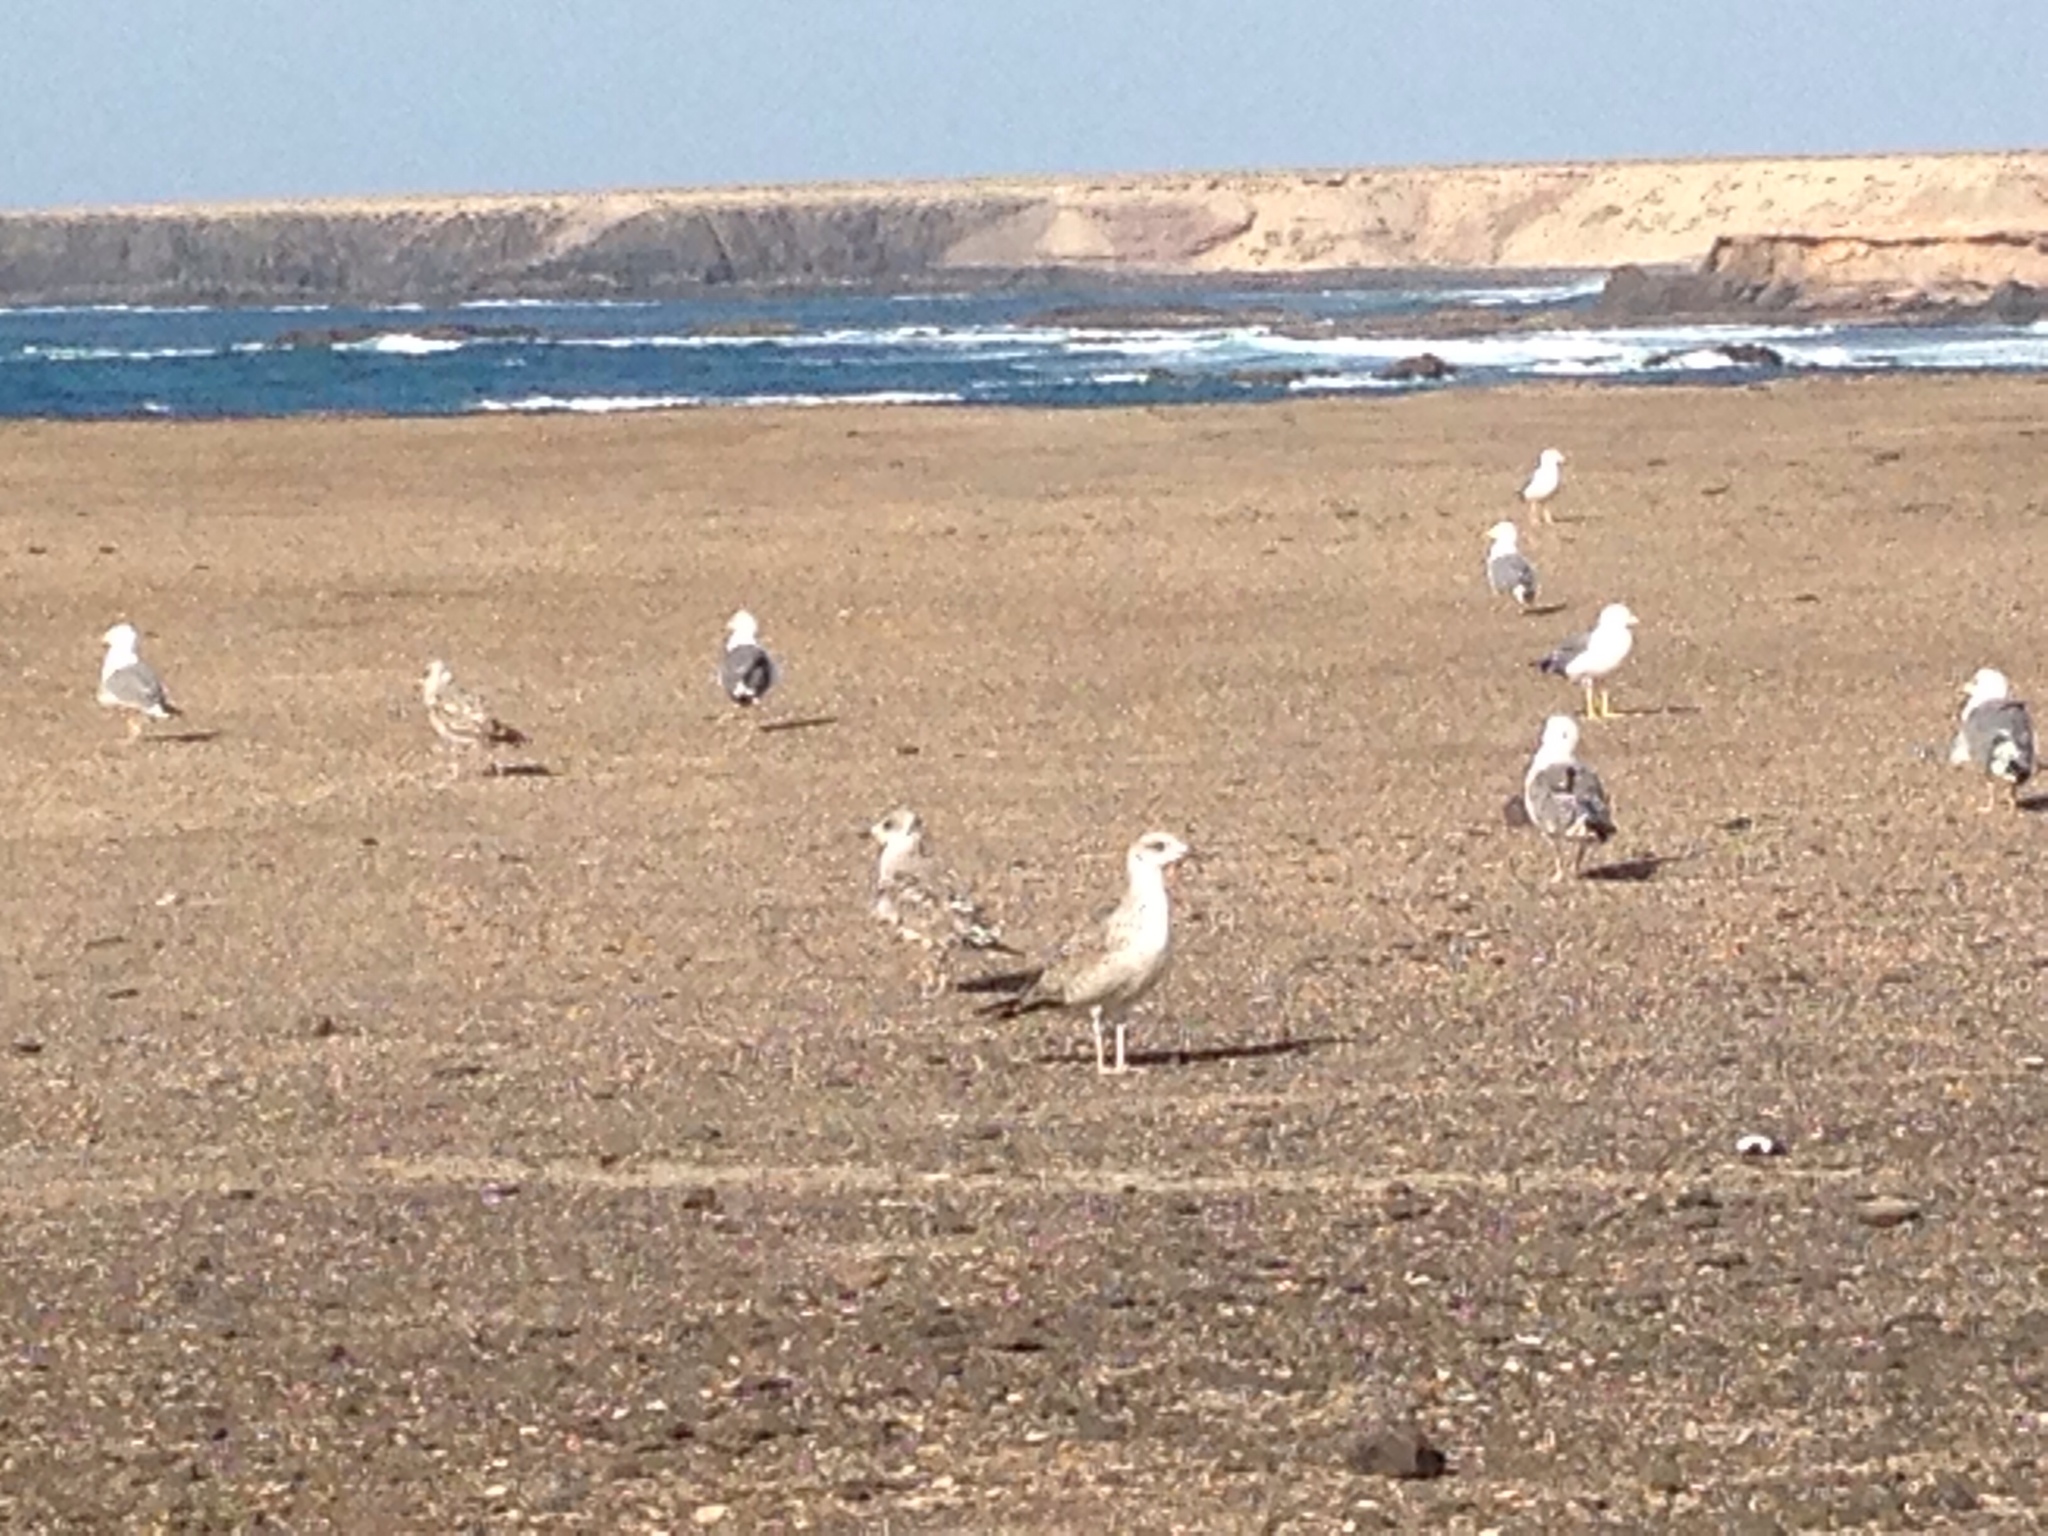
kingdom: Animalia
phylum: Chordata
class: Aves
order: Charadriiformes
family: Laridae
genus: Larus
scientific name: Larus michahellis
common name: Yellow-legged gull
